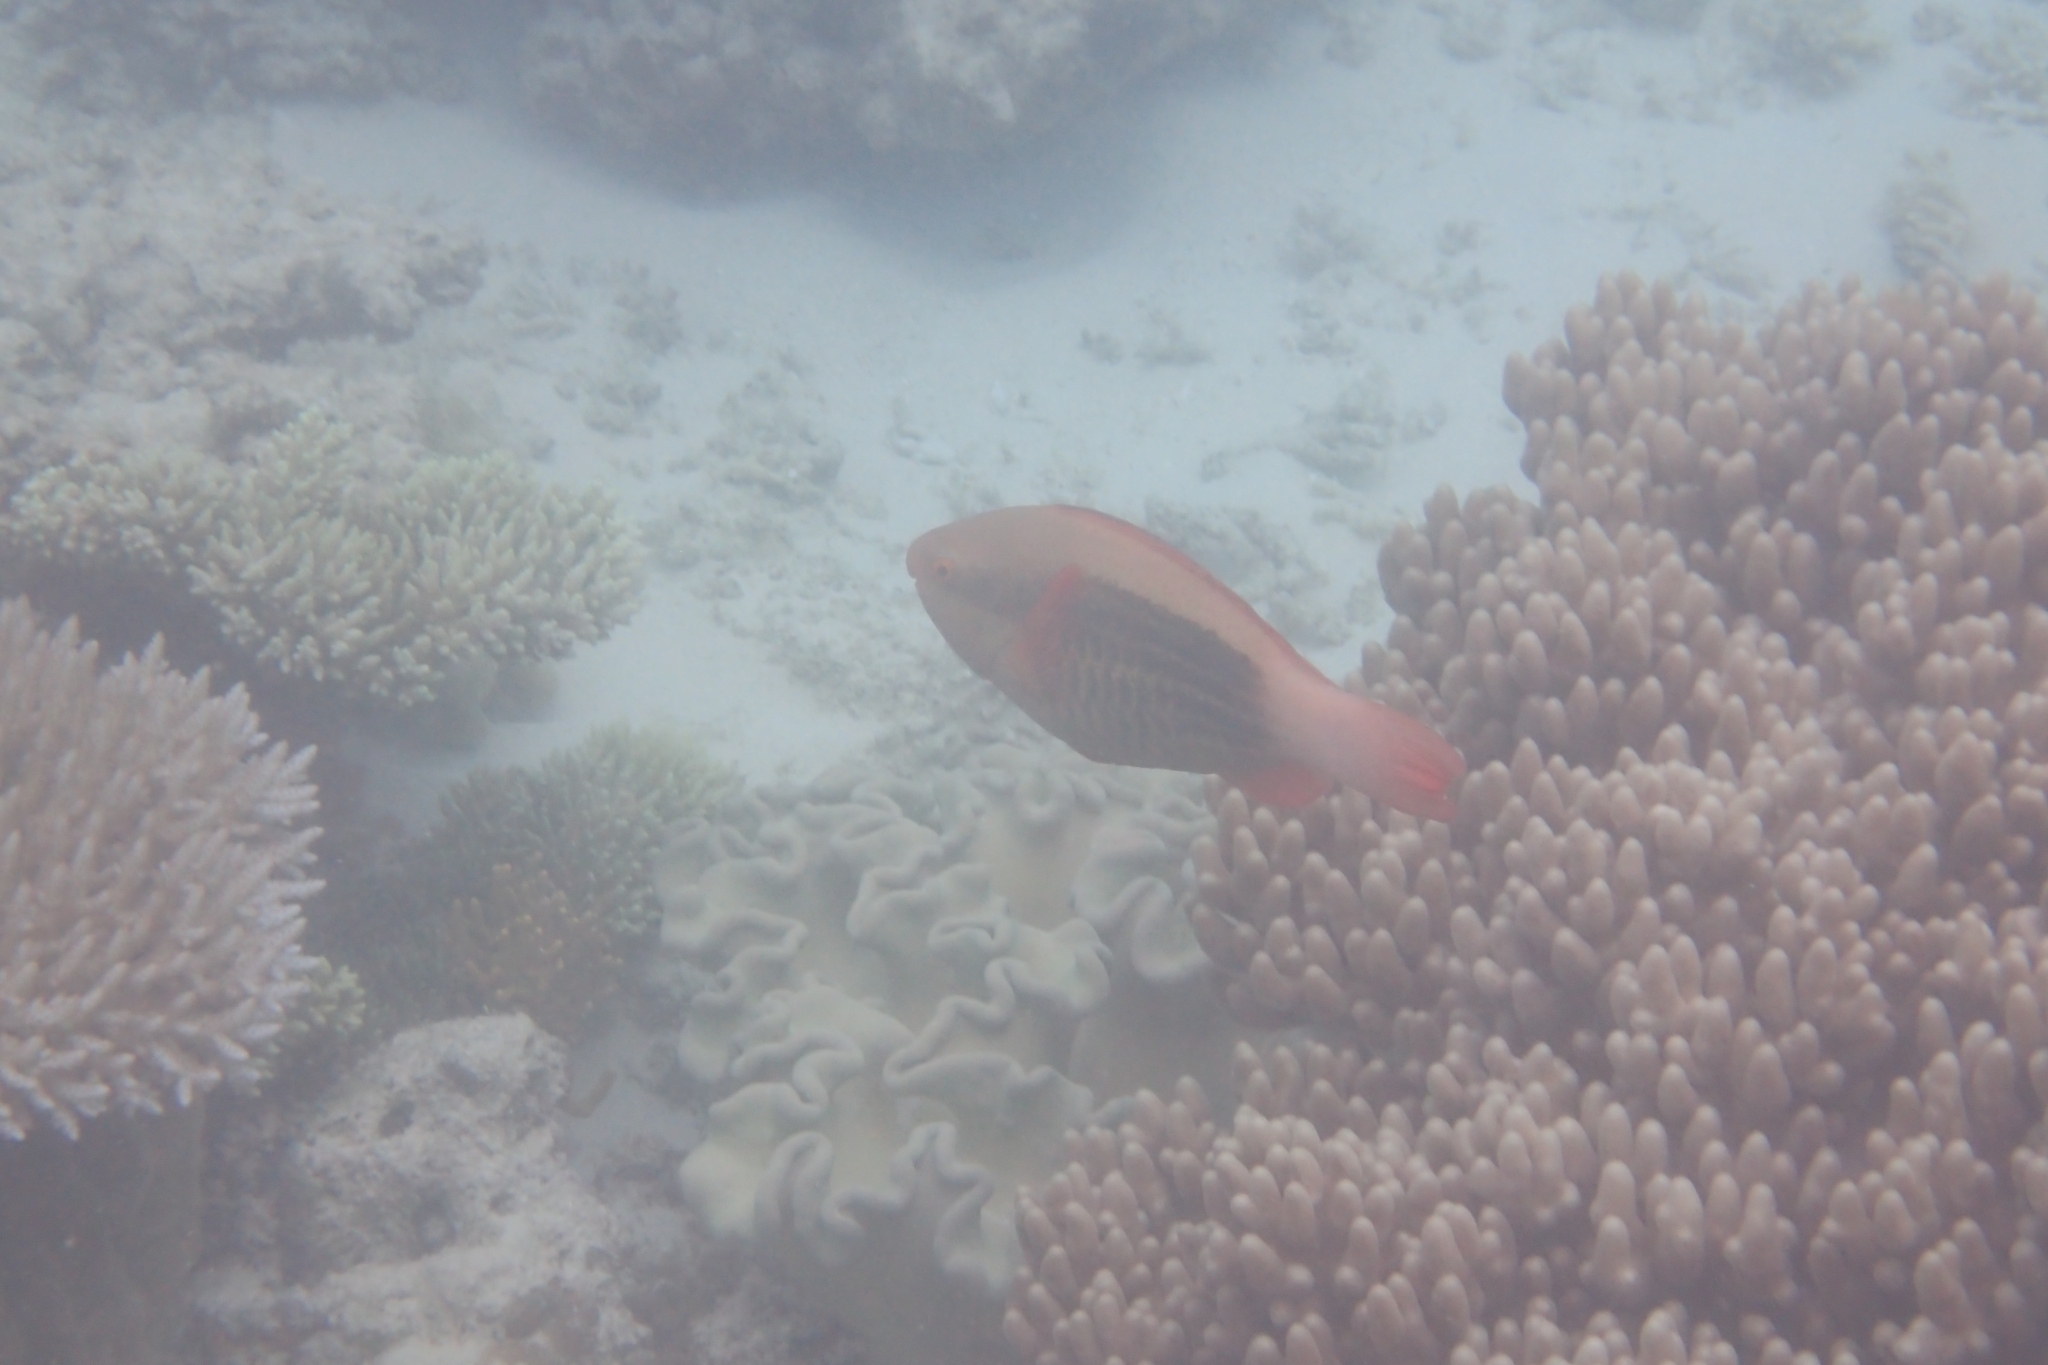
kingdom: Animalia
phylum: Chordata
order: Perciformes
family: Scaridae
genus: Scarus
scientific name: Scarus frenatus
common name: Bridled parrotfish
